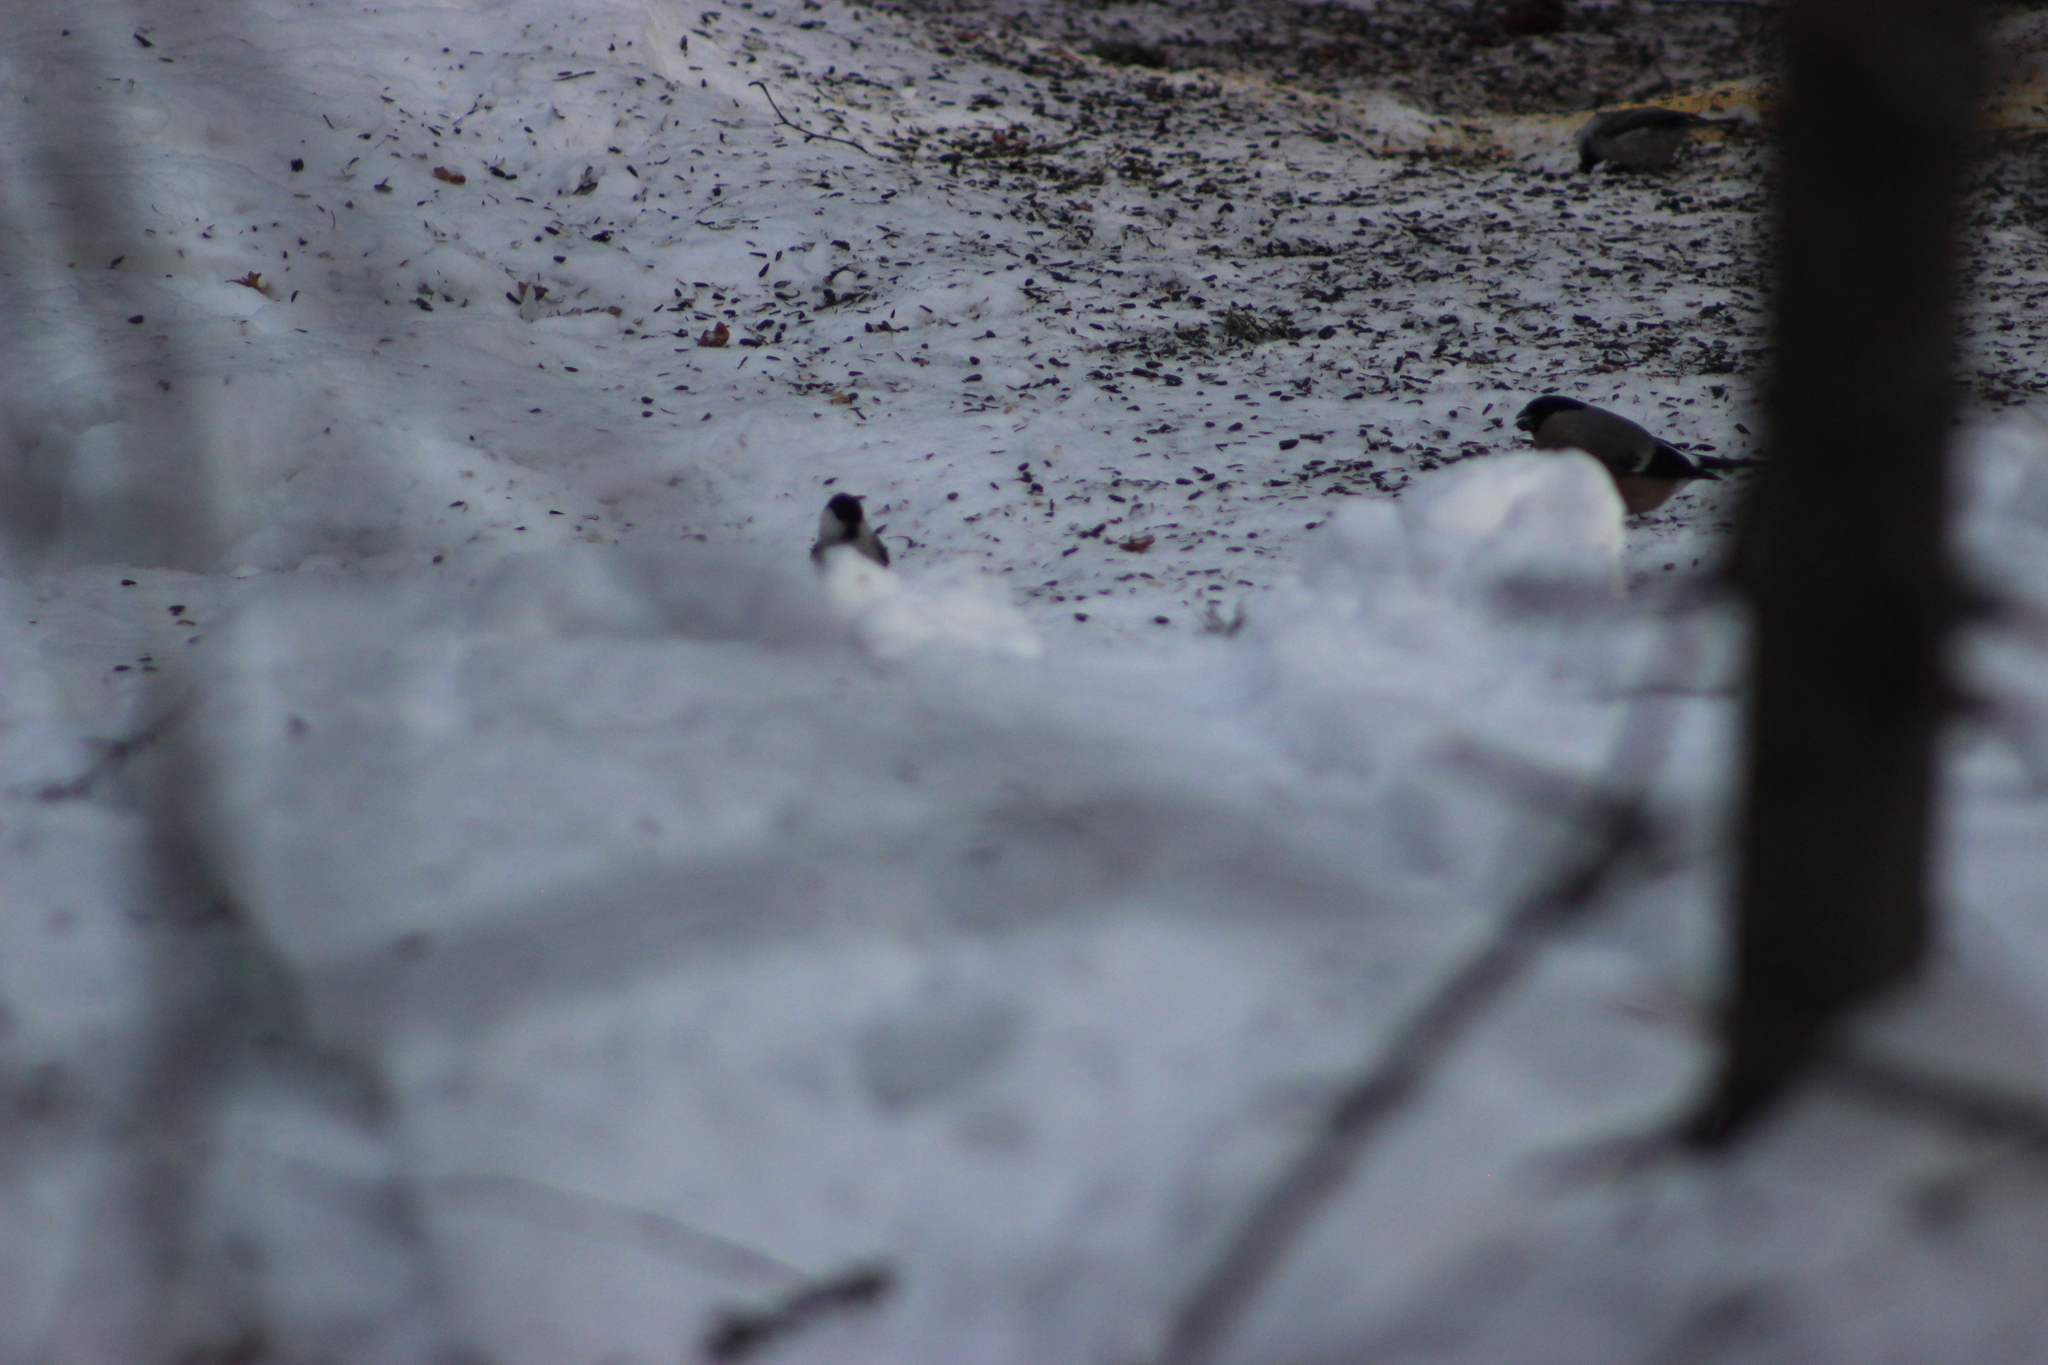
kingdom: Animalia
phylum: Chordata
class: Aves
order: Passeriformes
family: Fringillidae
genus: Pyrrhula
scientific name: Pyrrhula pyrrhula
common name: Eurasian bullfinch
